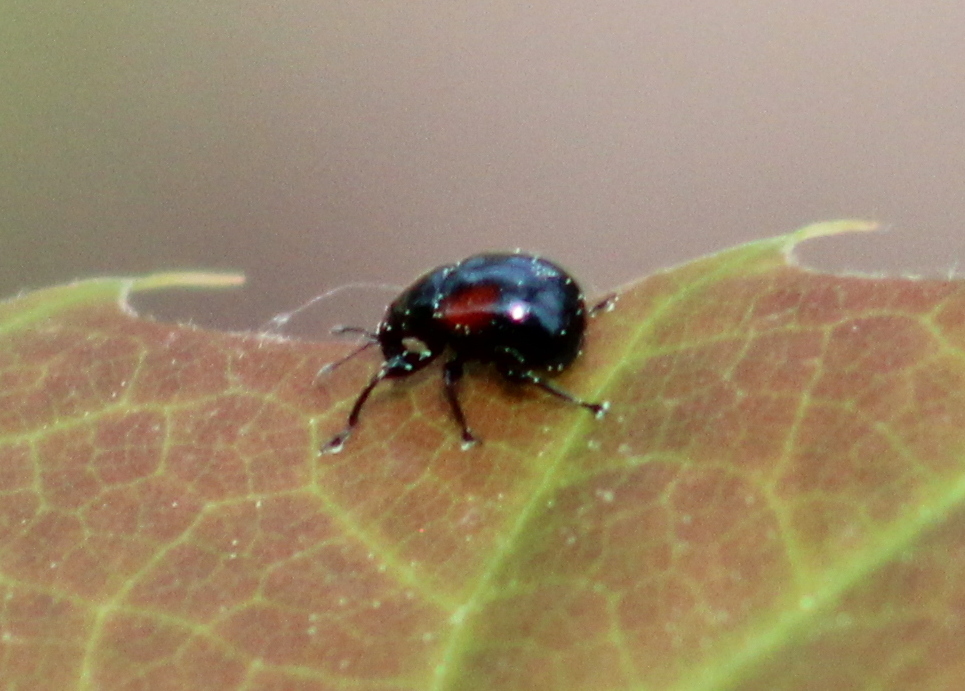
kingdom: Animalia
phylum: Arthropoda
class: Insecta
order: Coleoptera
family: Attelabidae
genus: Attelabus
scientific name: Attelabus bipustulatus
